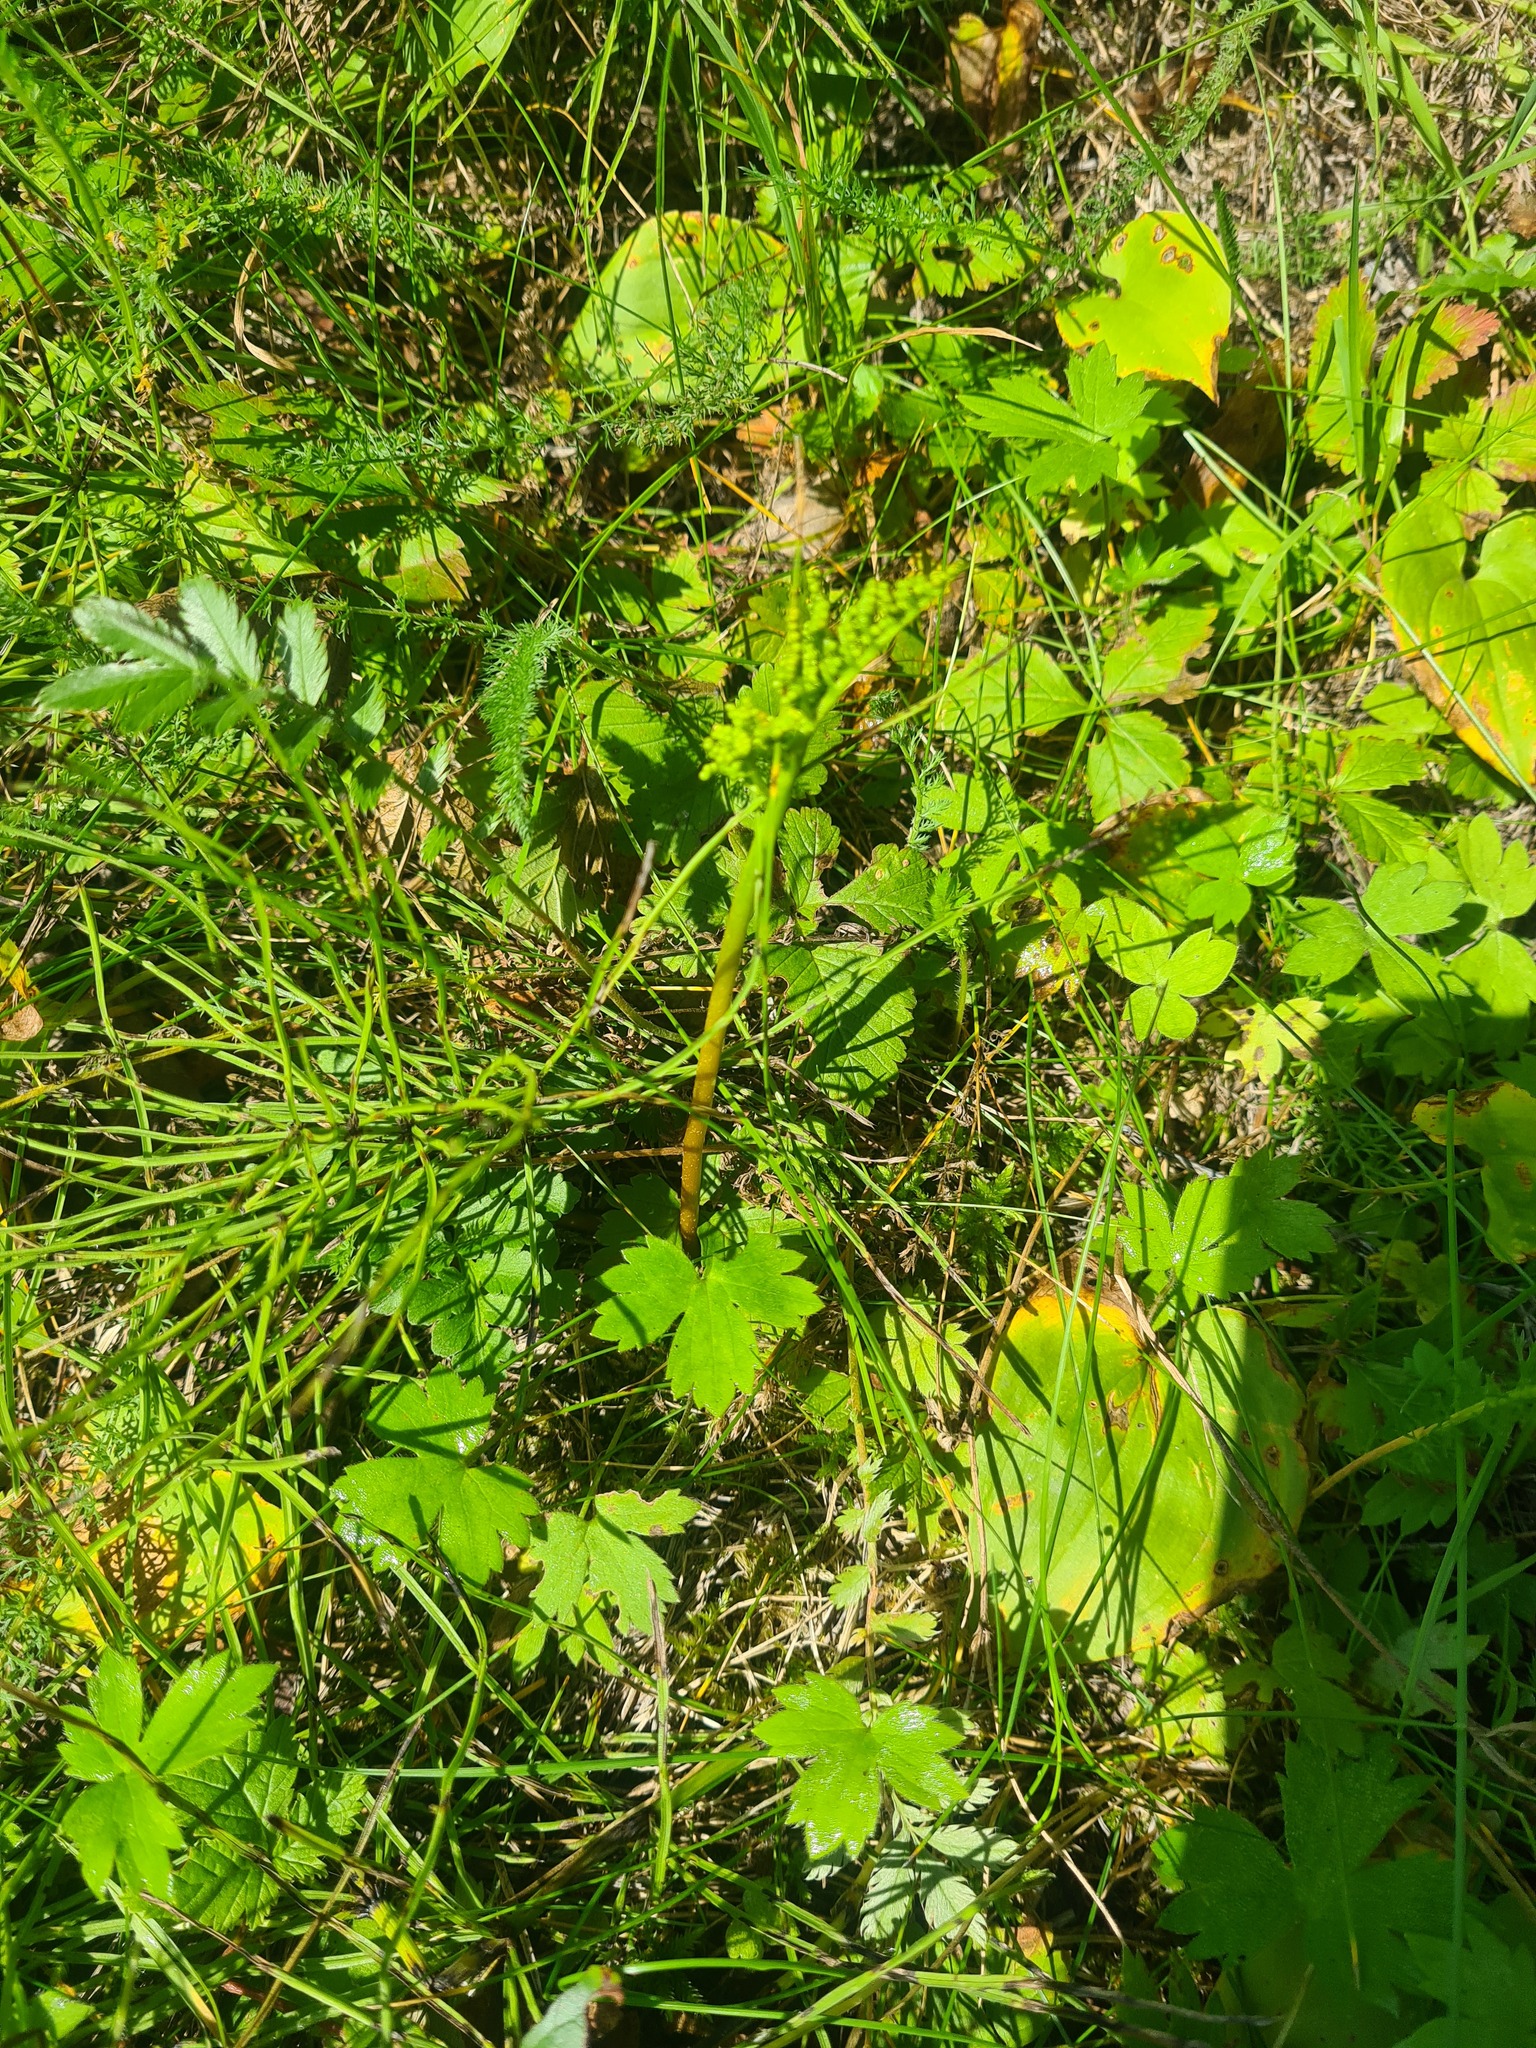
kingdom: Plantae
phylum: Tracheophyta
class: Polypodiopsida
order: Ophioglossales
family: Ophioglossaceae
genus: Sceptridium
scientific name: Sceptridium multifidum
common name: Leathery grape fern
